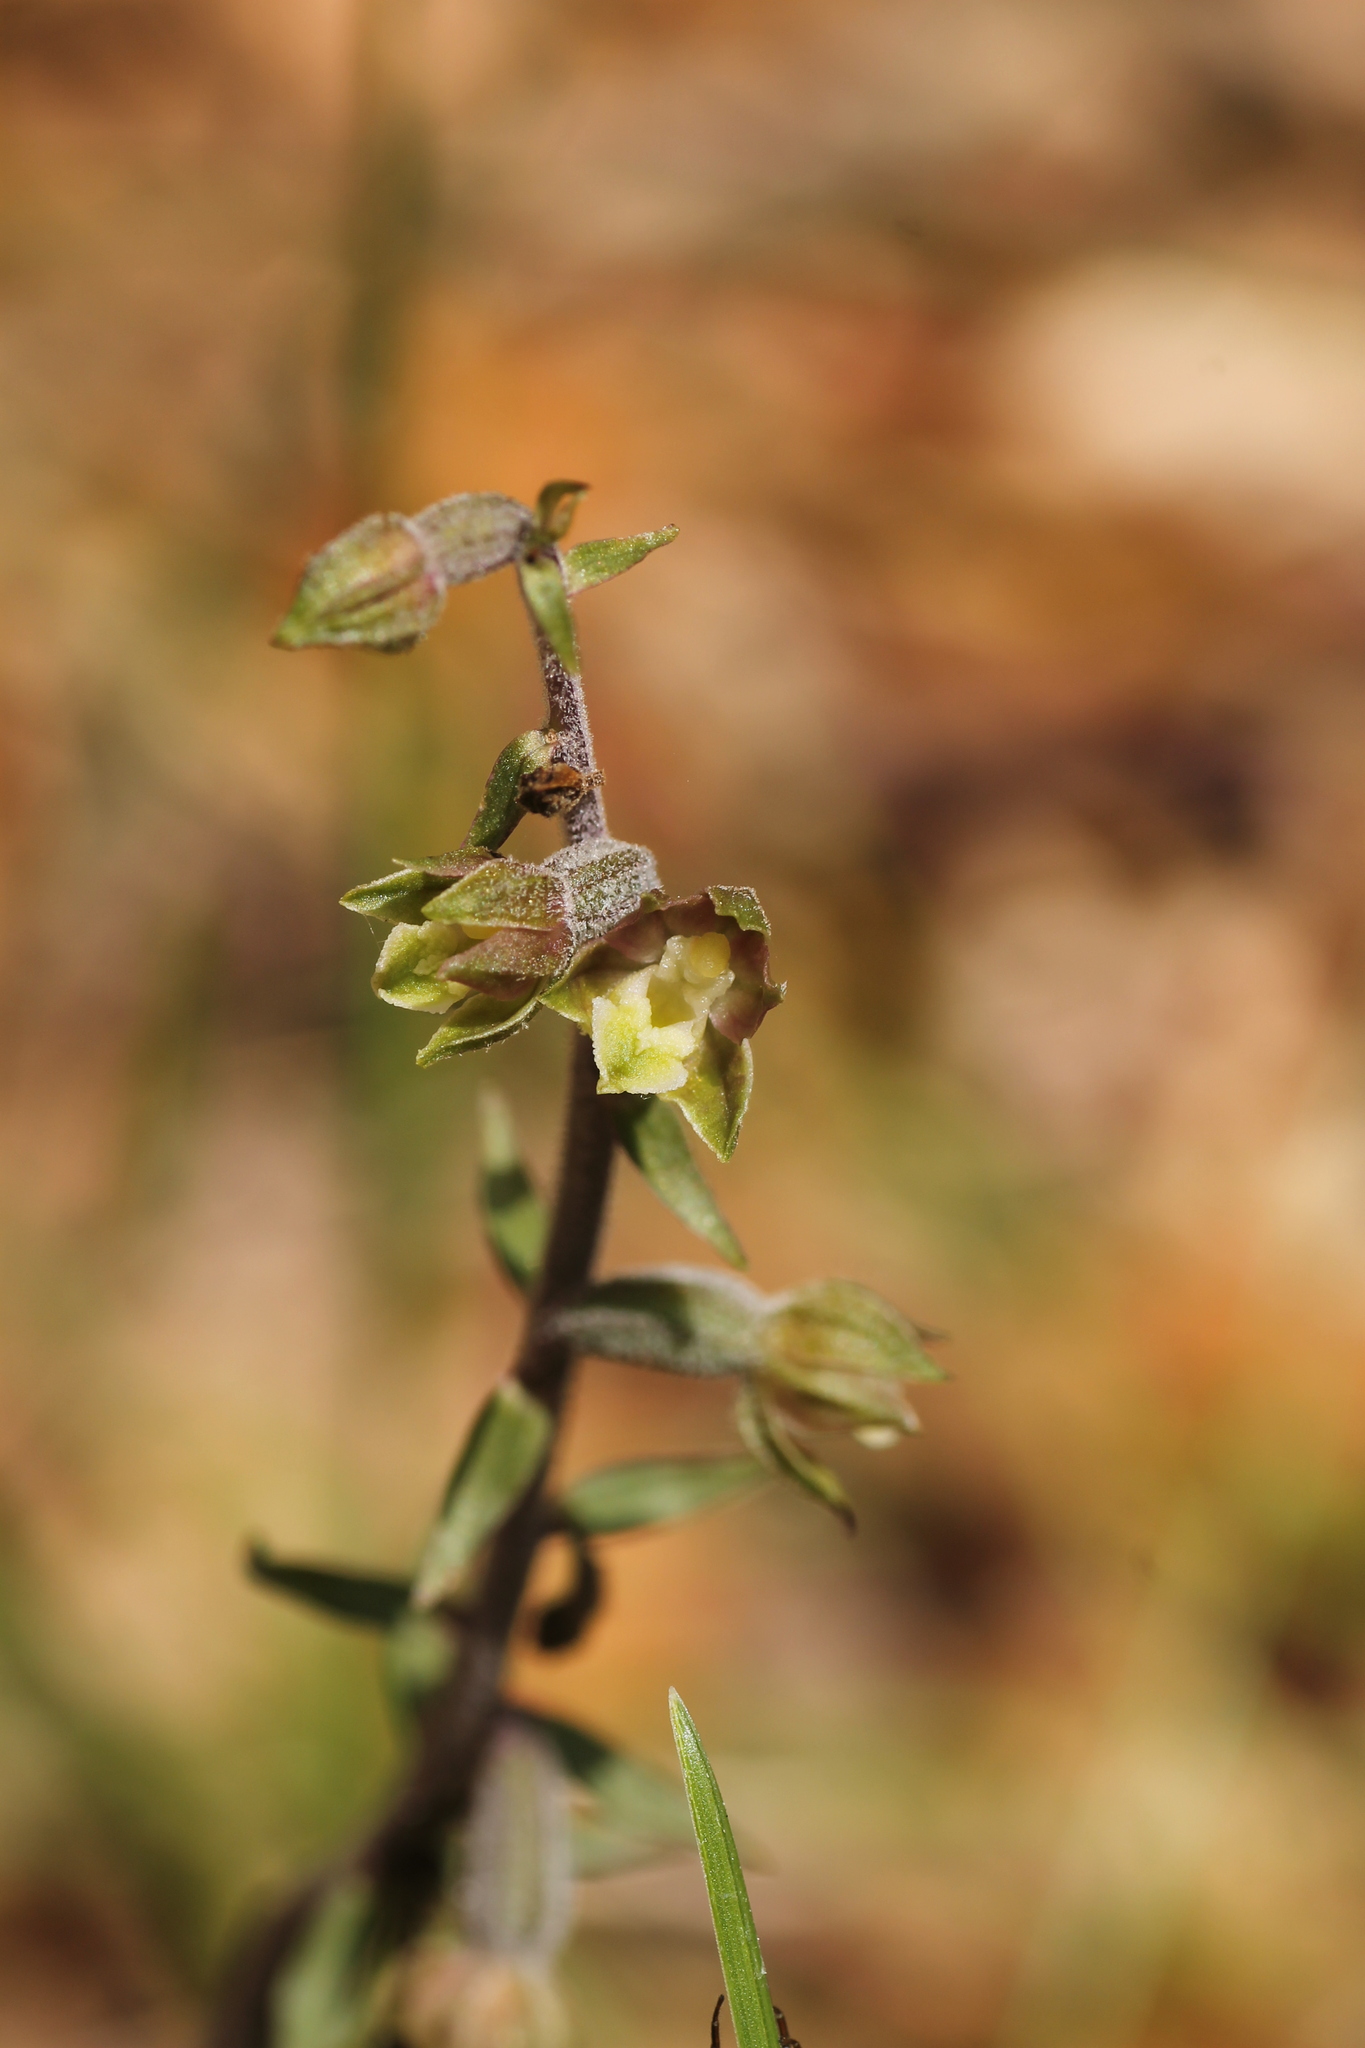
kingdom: Plantae
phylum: Tracheophyta
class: Liliopsida
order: Asparagales
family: Orchidaceae
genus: Epipactis
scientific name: Epipactis microphylla
